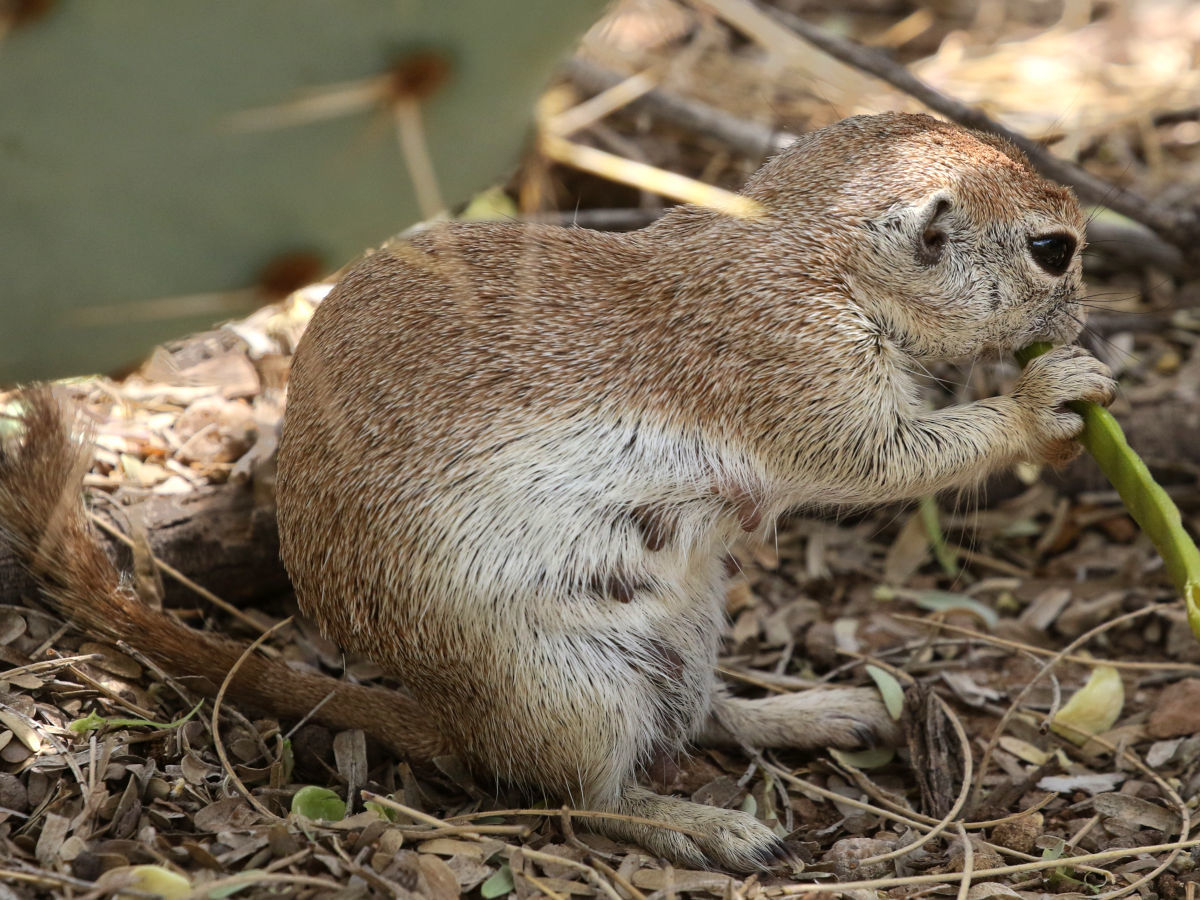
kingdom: Animalia
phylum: Chordata
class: Mammalia
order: Rodentia
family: Sciuridae
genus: Xerospermophilus
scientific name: Xerospermophilus tereticaudus
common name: Round-tailed ground squirrel
